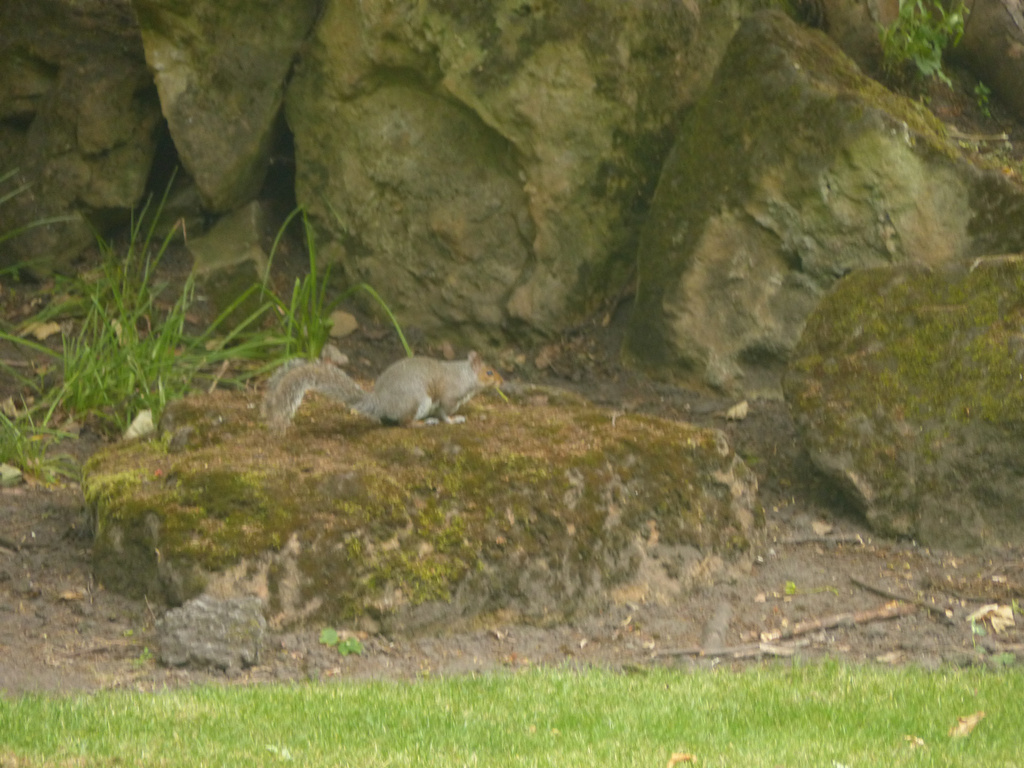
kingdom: Animalia
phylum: Chordata
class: Mammalia
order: Rodentia
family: Sciuridae
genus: Sciurus
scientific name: Sciurus carolinensis
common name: Eastern gray squirrel
